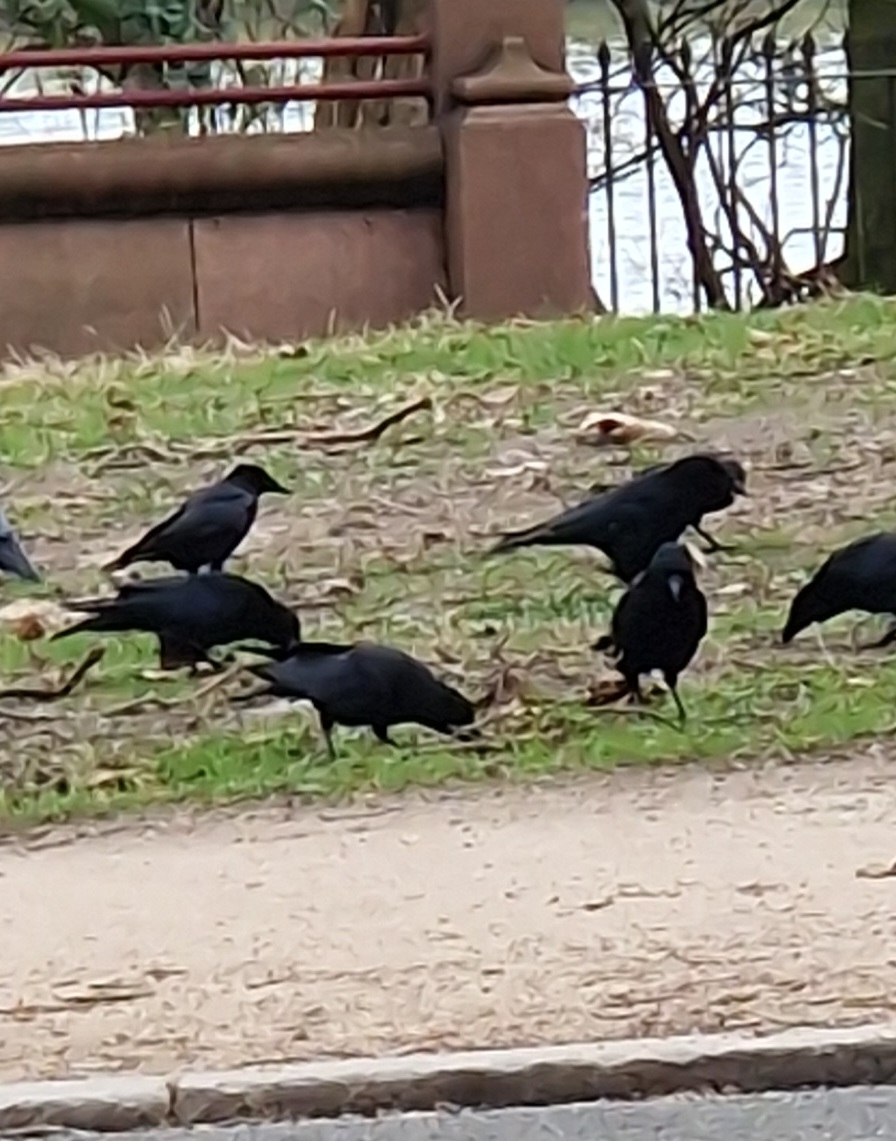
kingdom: Animalia
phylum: Chordata
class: Aves
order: Passeriformes
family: Corvidae
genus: Corvus
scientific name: Corvus corone
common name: Carrion crow
